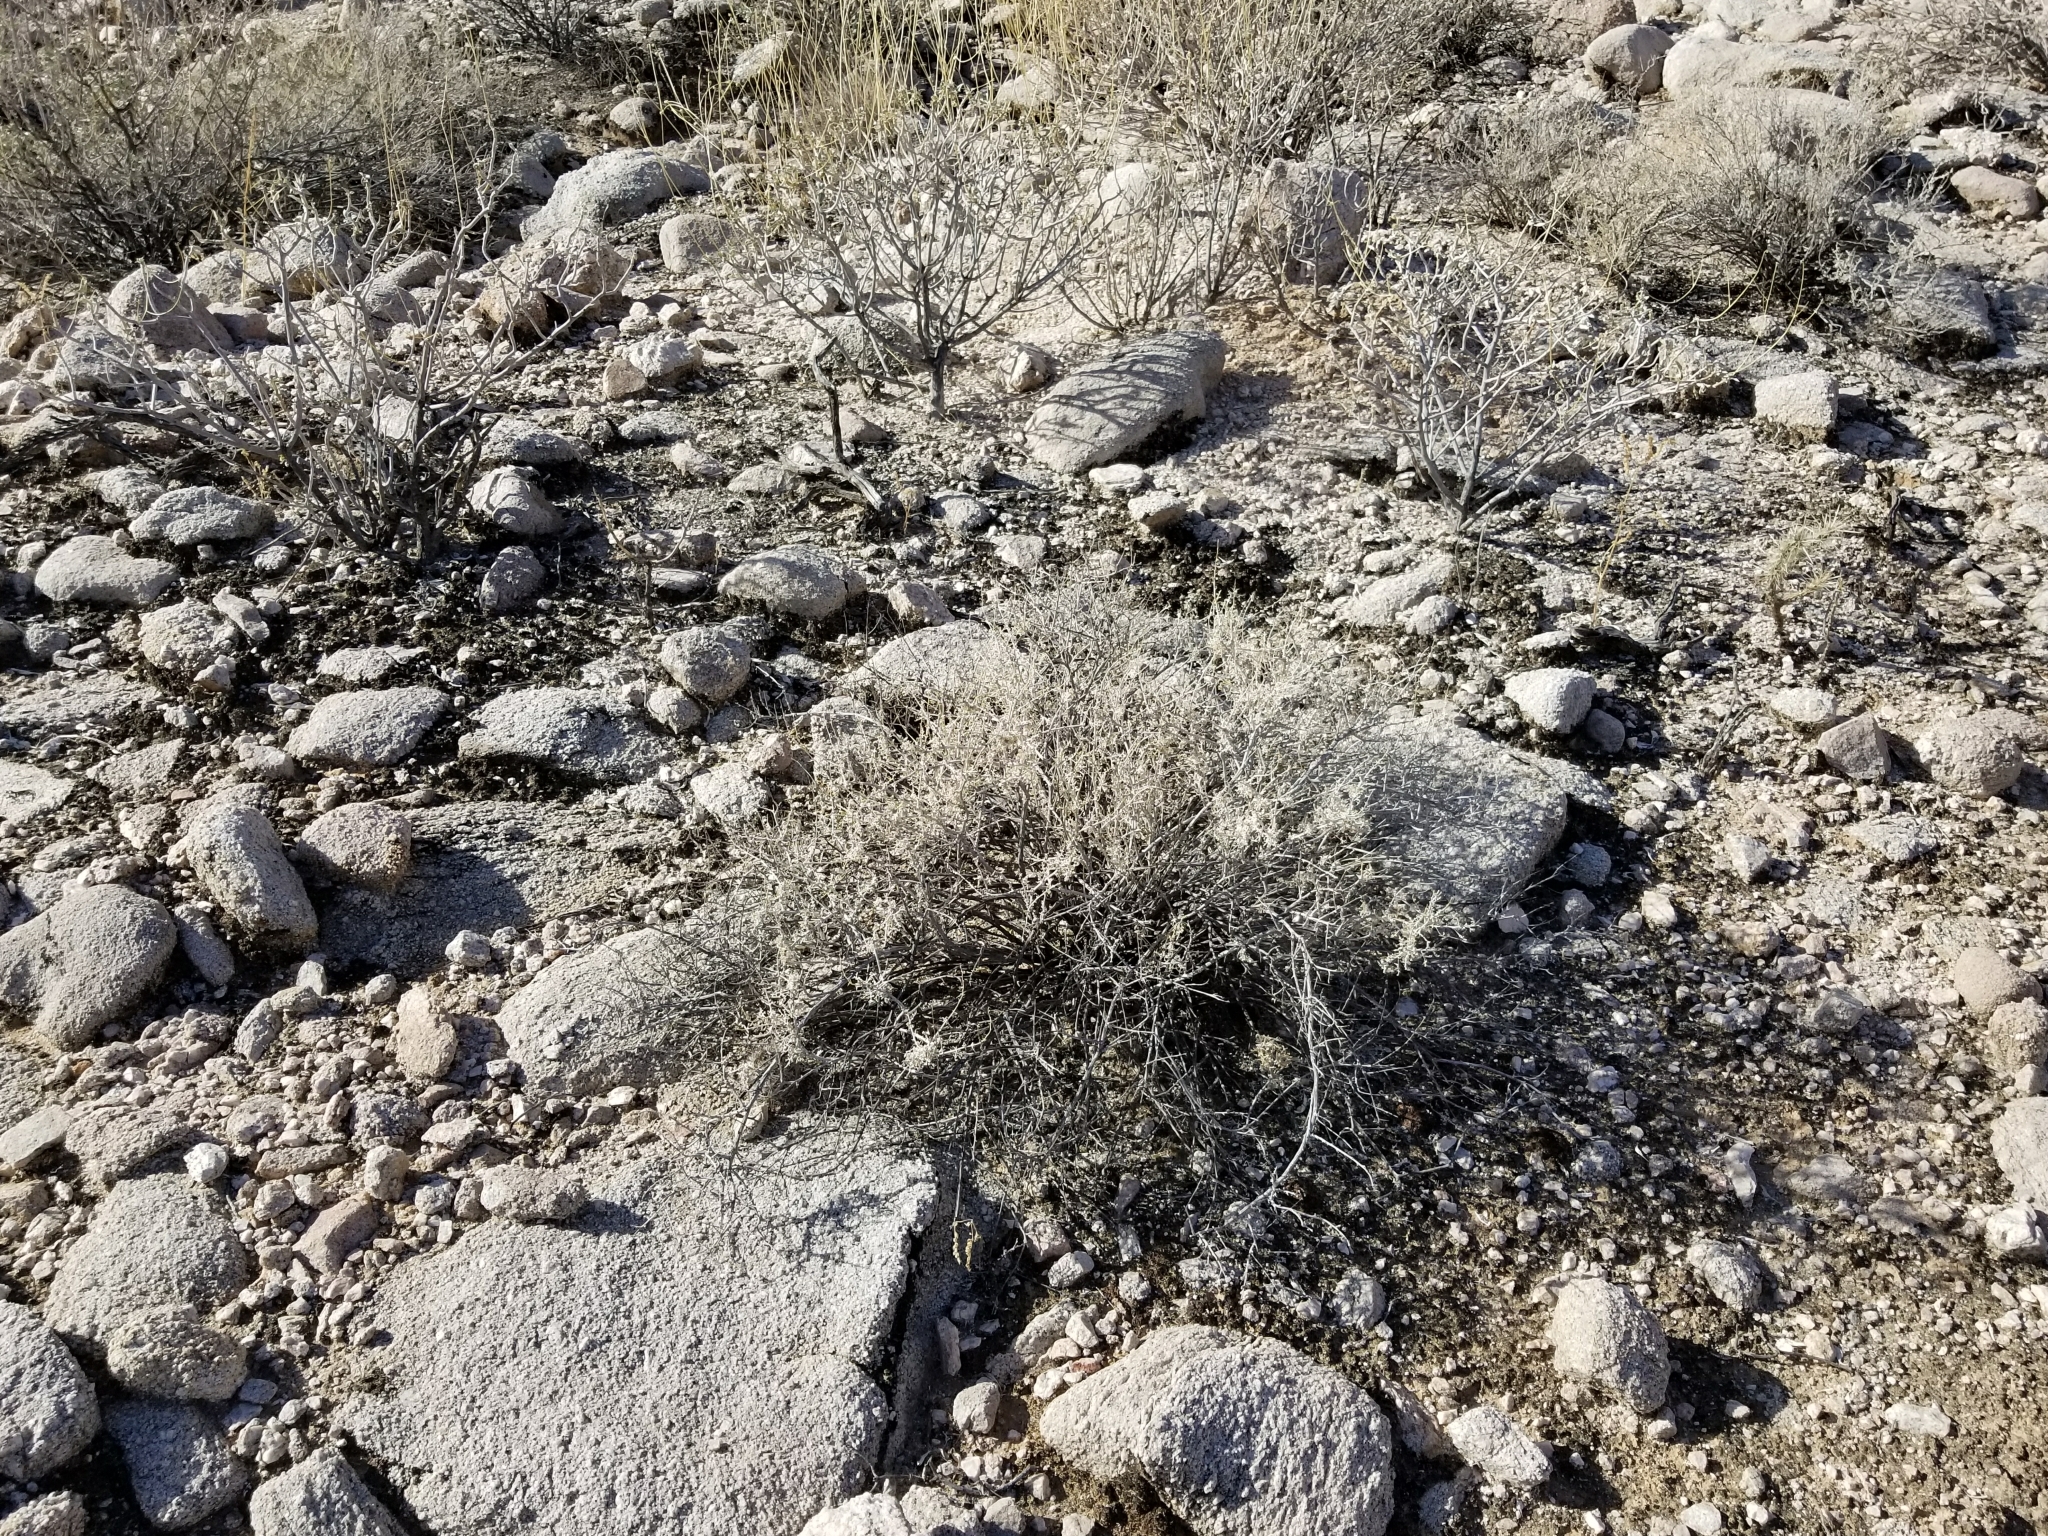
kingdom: Plantae
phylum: Tracheophyta
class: Magnoliopsida
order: Asterales
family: Asteraceae
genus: Ambrosia
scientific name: Ambrosia dumosa
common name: Bur-sage
